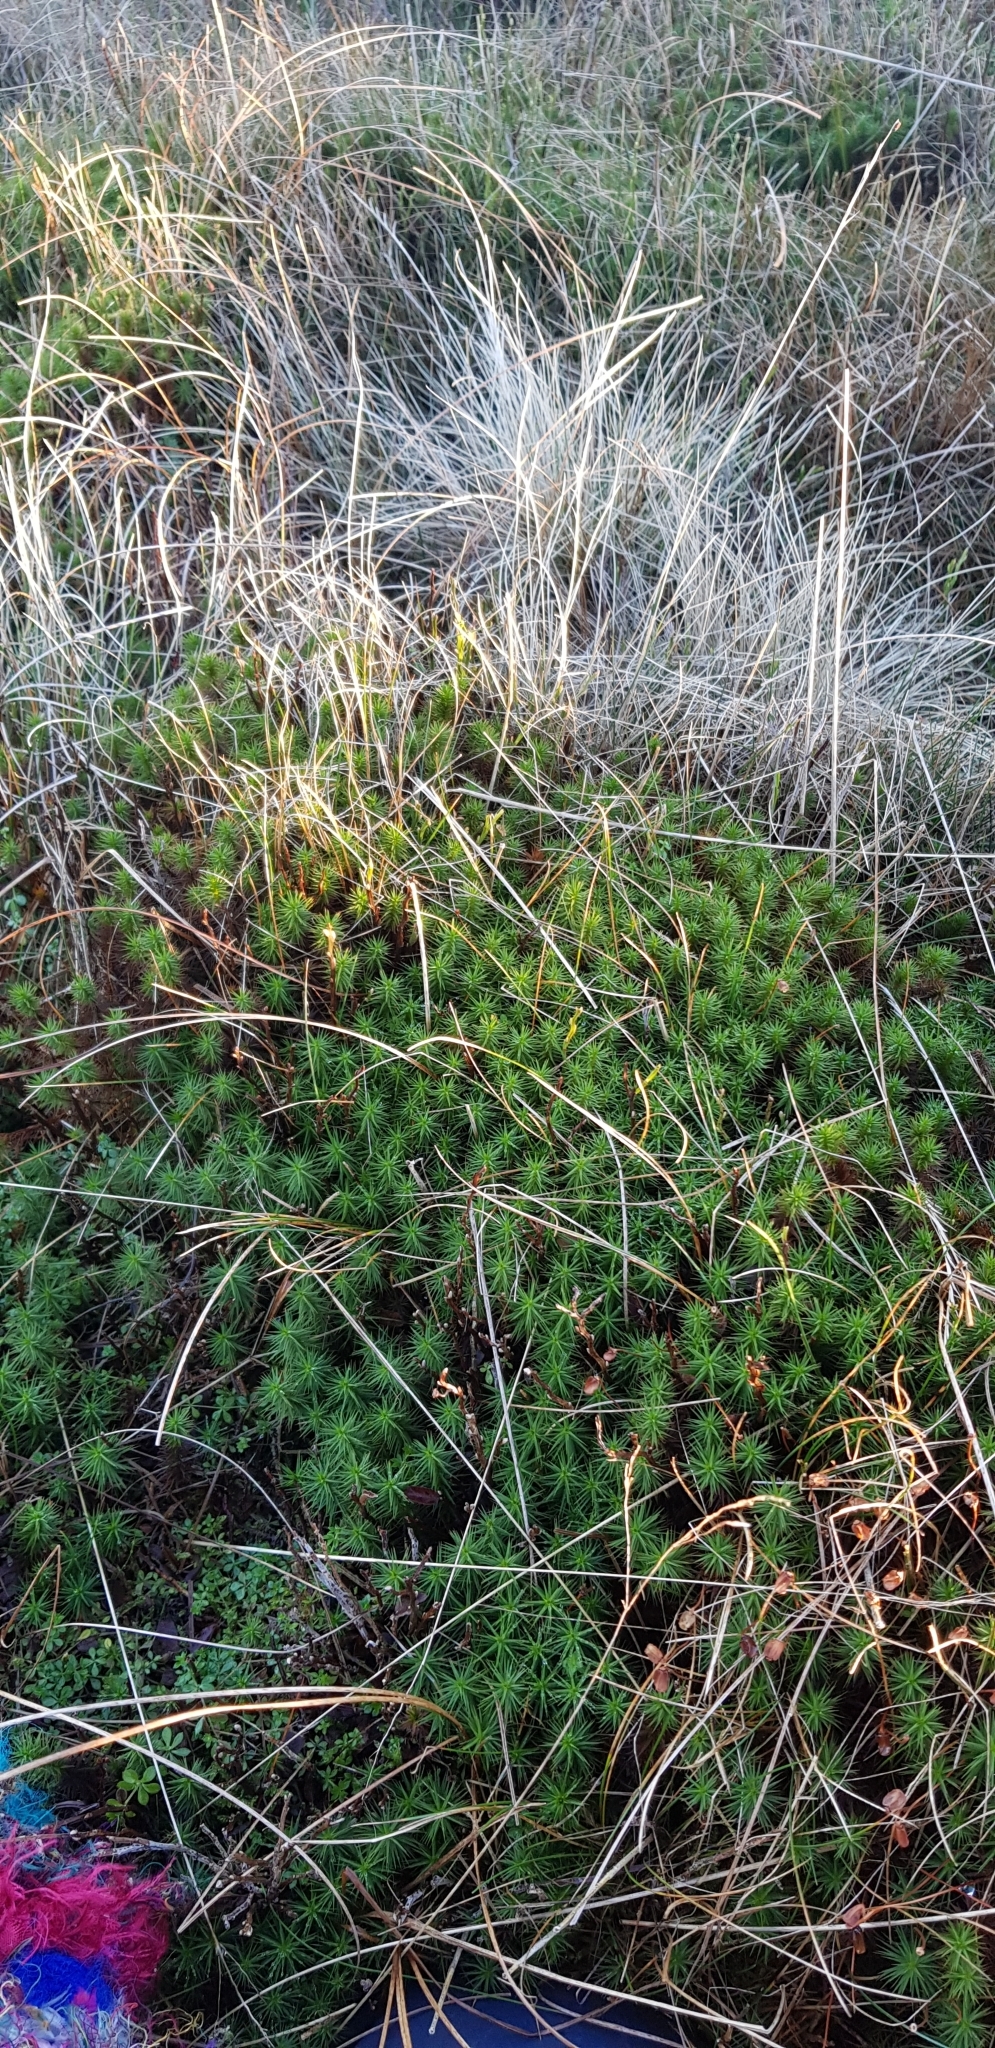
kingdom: Plantae
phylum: Bryophyta
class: Polytrichopsida
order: Polytrichales
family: Polytrichaceae
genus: Polytrichum
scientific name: Polytrichum commune
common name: Common haircap
